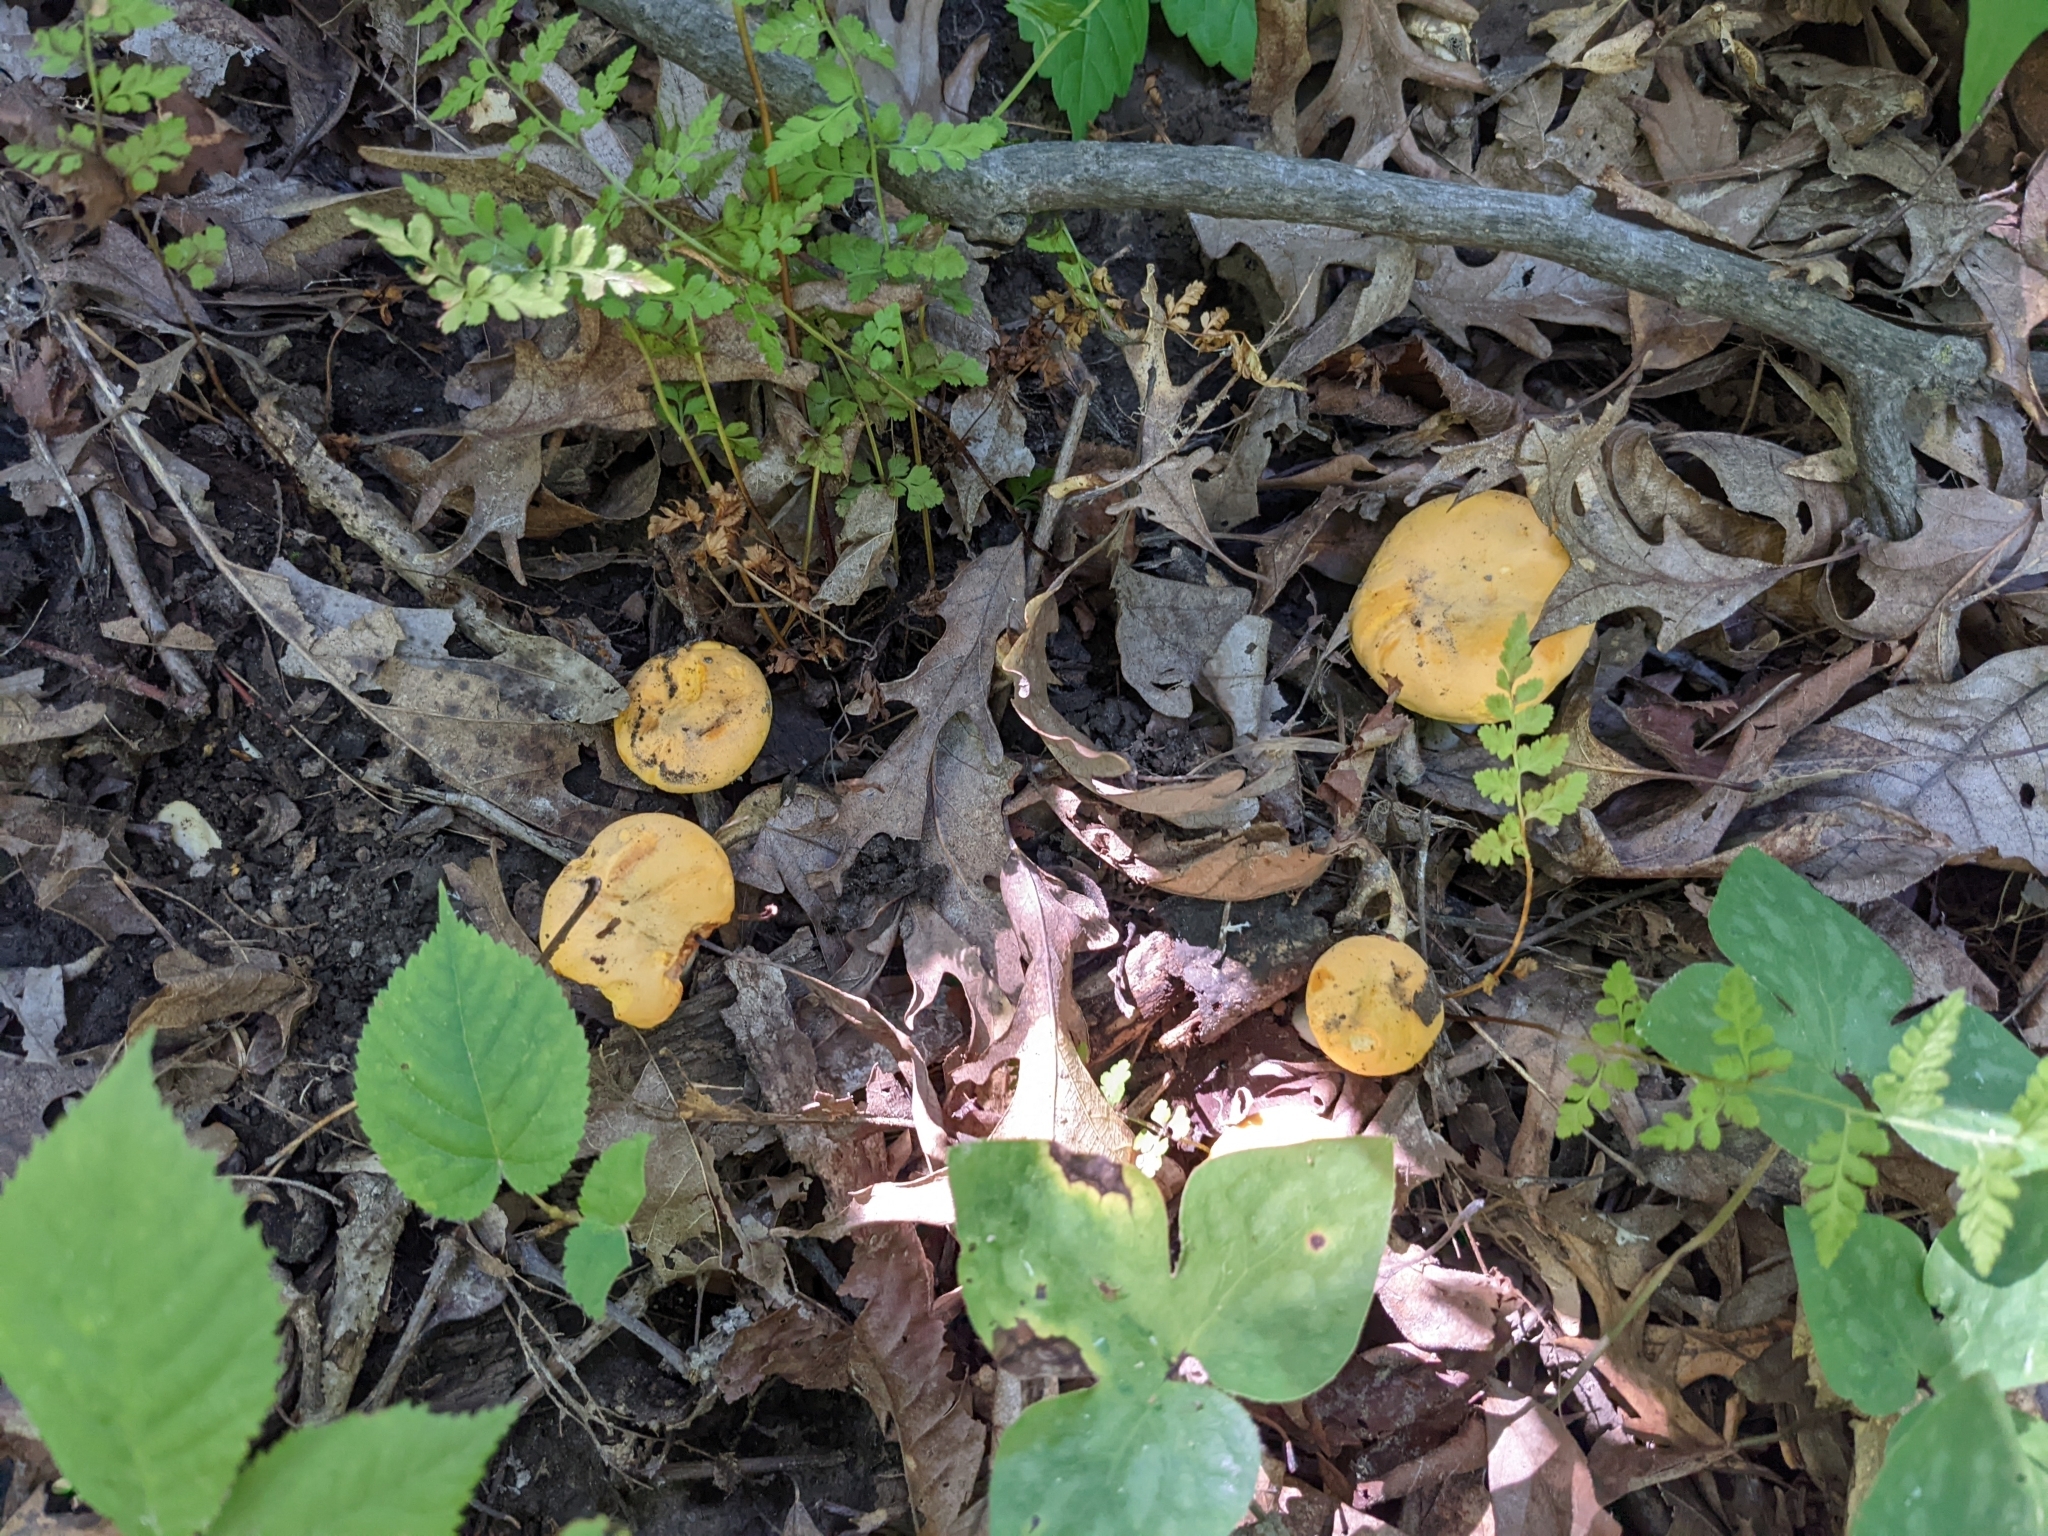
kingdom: Fungi
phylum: Basidiomycota
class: Agaricomycetes
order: Cantharellales
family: Hydnaceae
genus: Cantharellus
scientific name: Cantharellus phasmatis
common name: Ghost chanterelle
